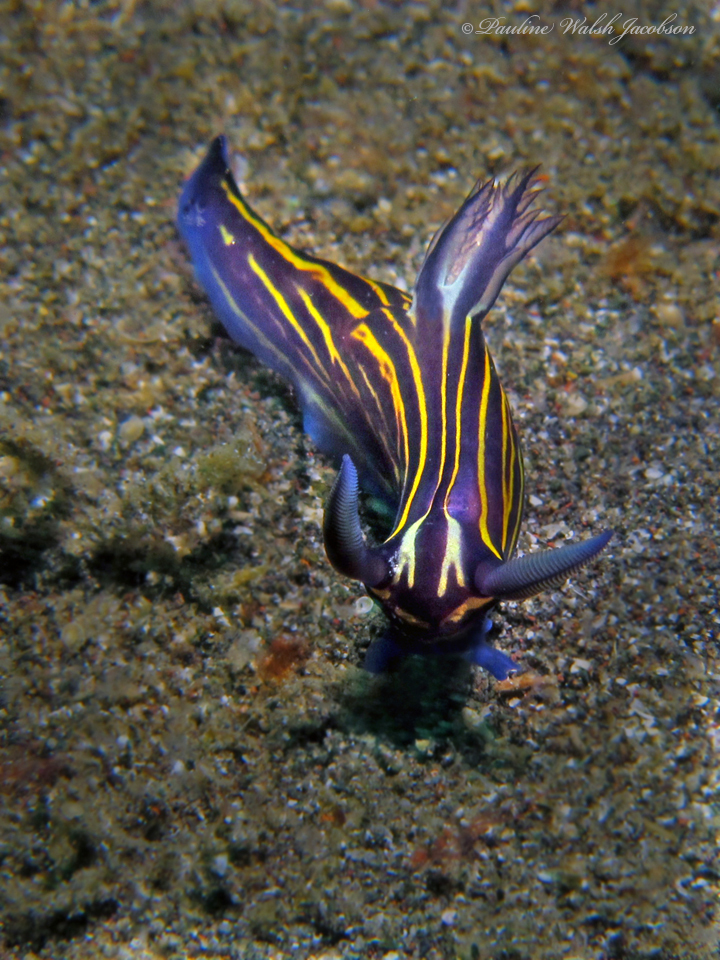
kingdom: Animalia
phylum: Mollusca
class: Gastropoda
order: Nudibranchia
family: Polyceridae
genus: Tyrannodoris
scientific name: Tyrannodoris luteolineata
